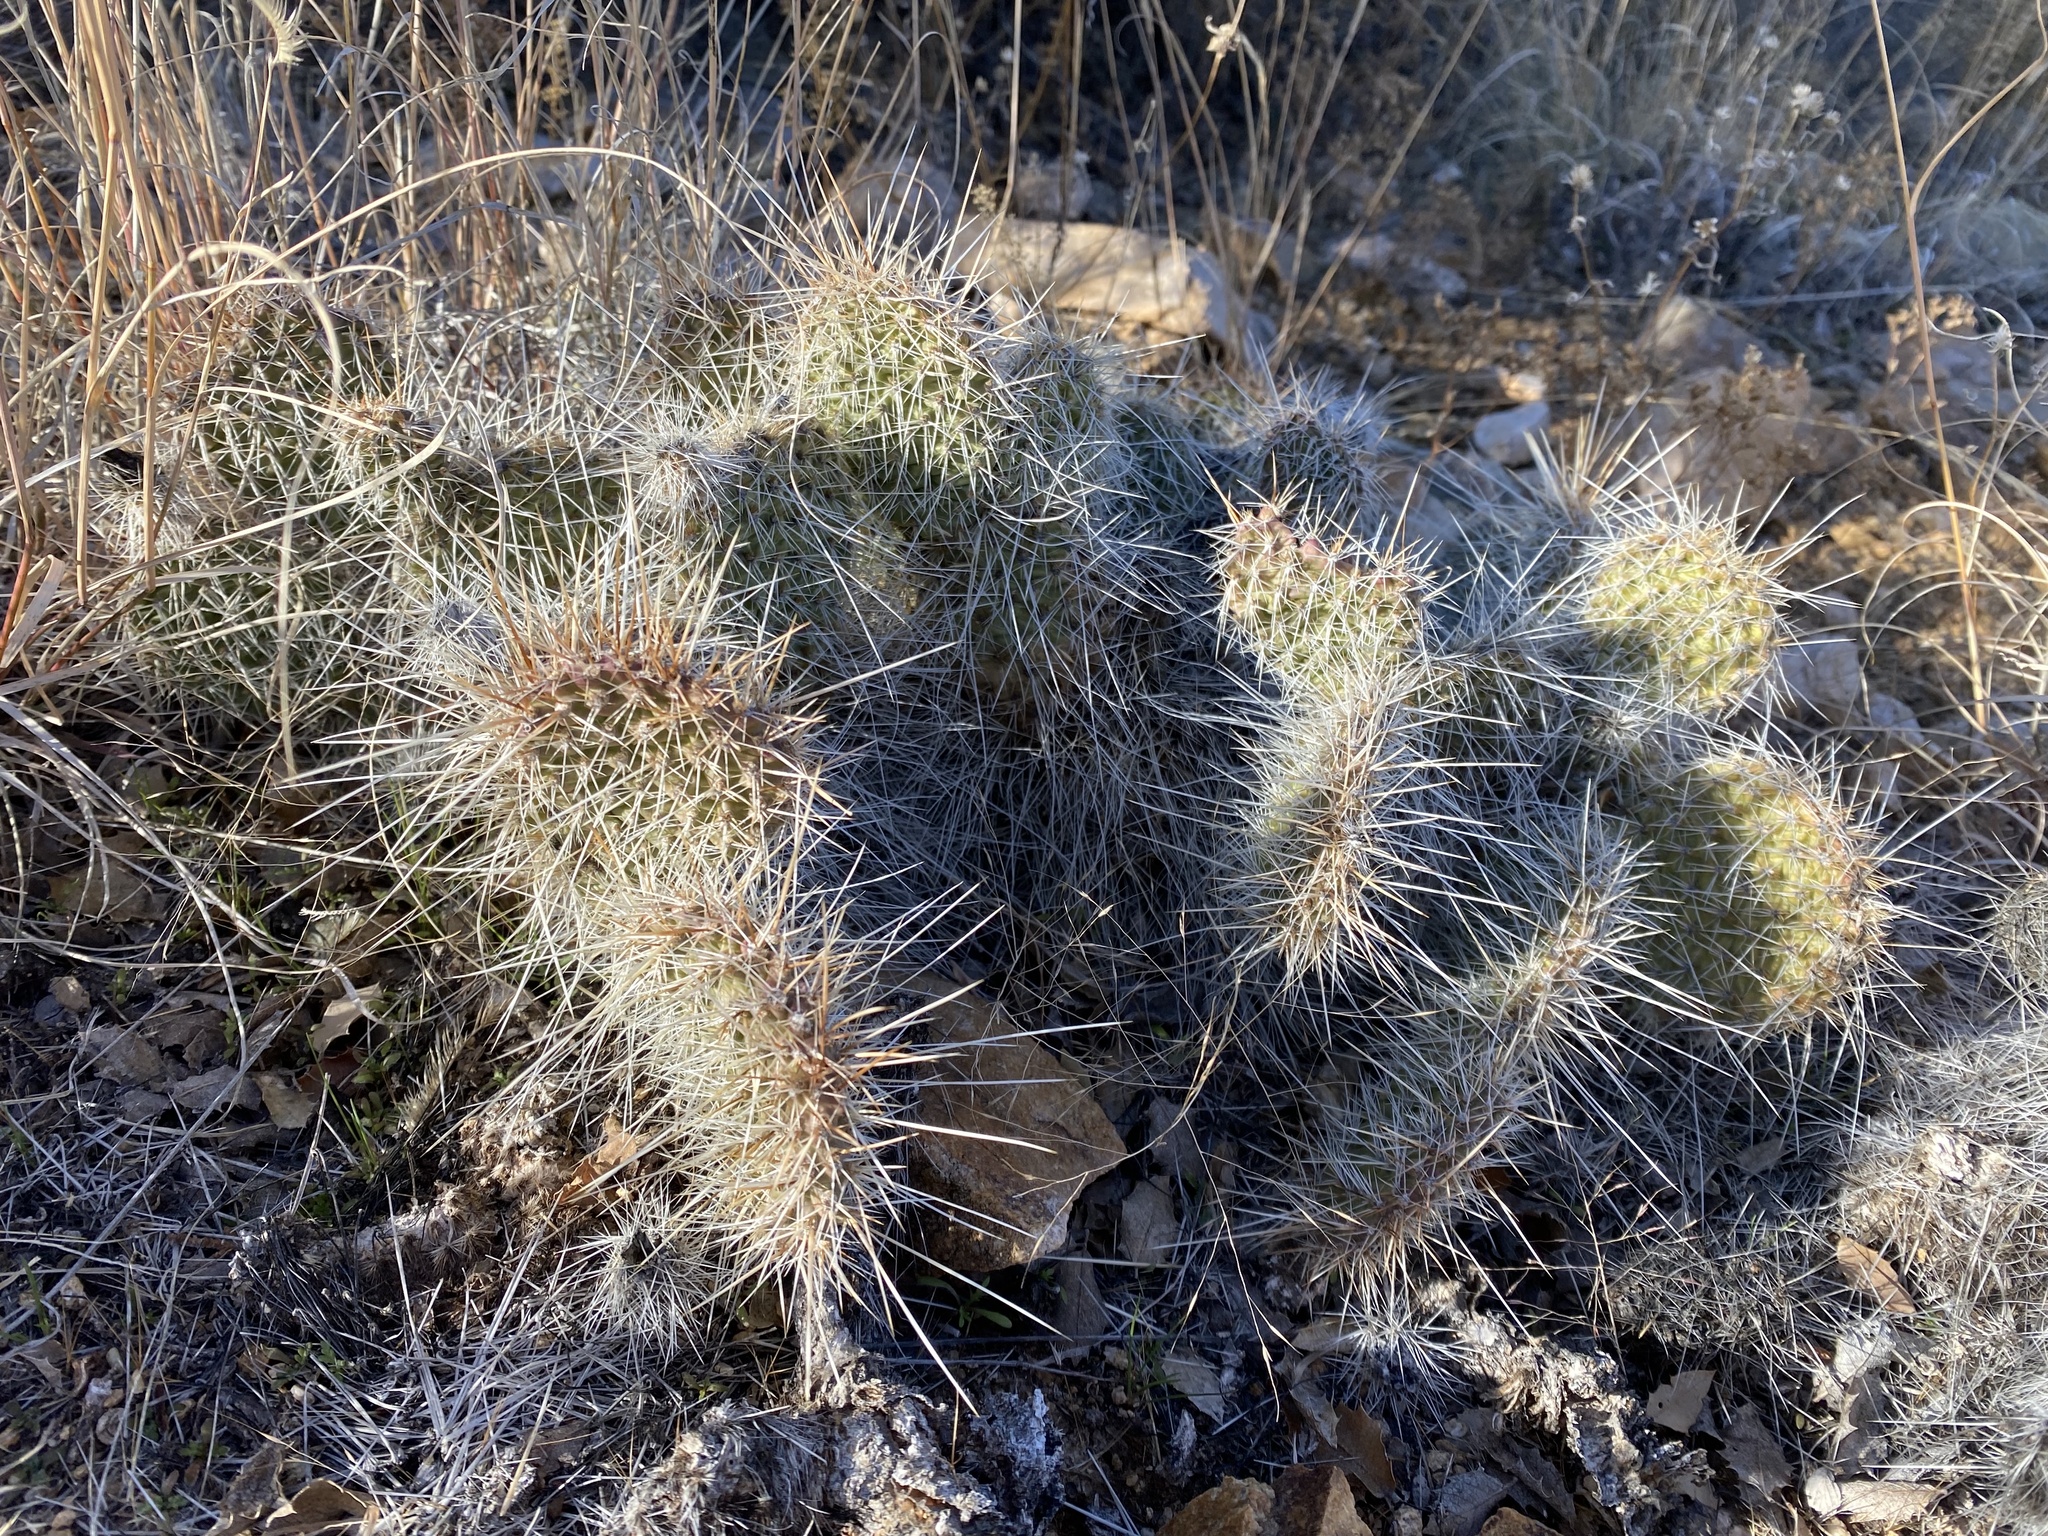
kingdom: Plantae
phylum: Tracheophyta
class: Magnoliopsida
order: Caryophyllales
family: Cactaceae
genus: Opuntia
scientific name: Opuntia polyacantha
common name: Plains prickly-pear
